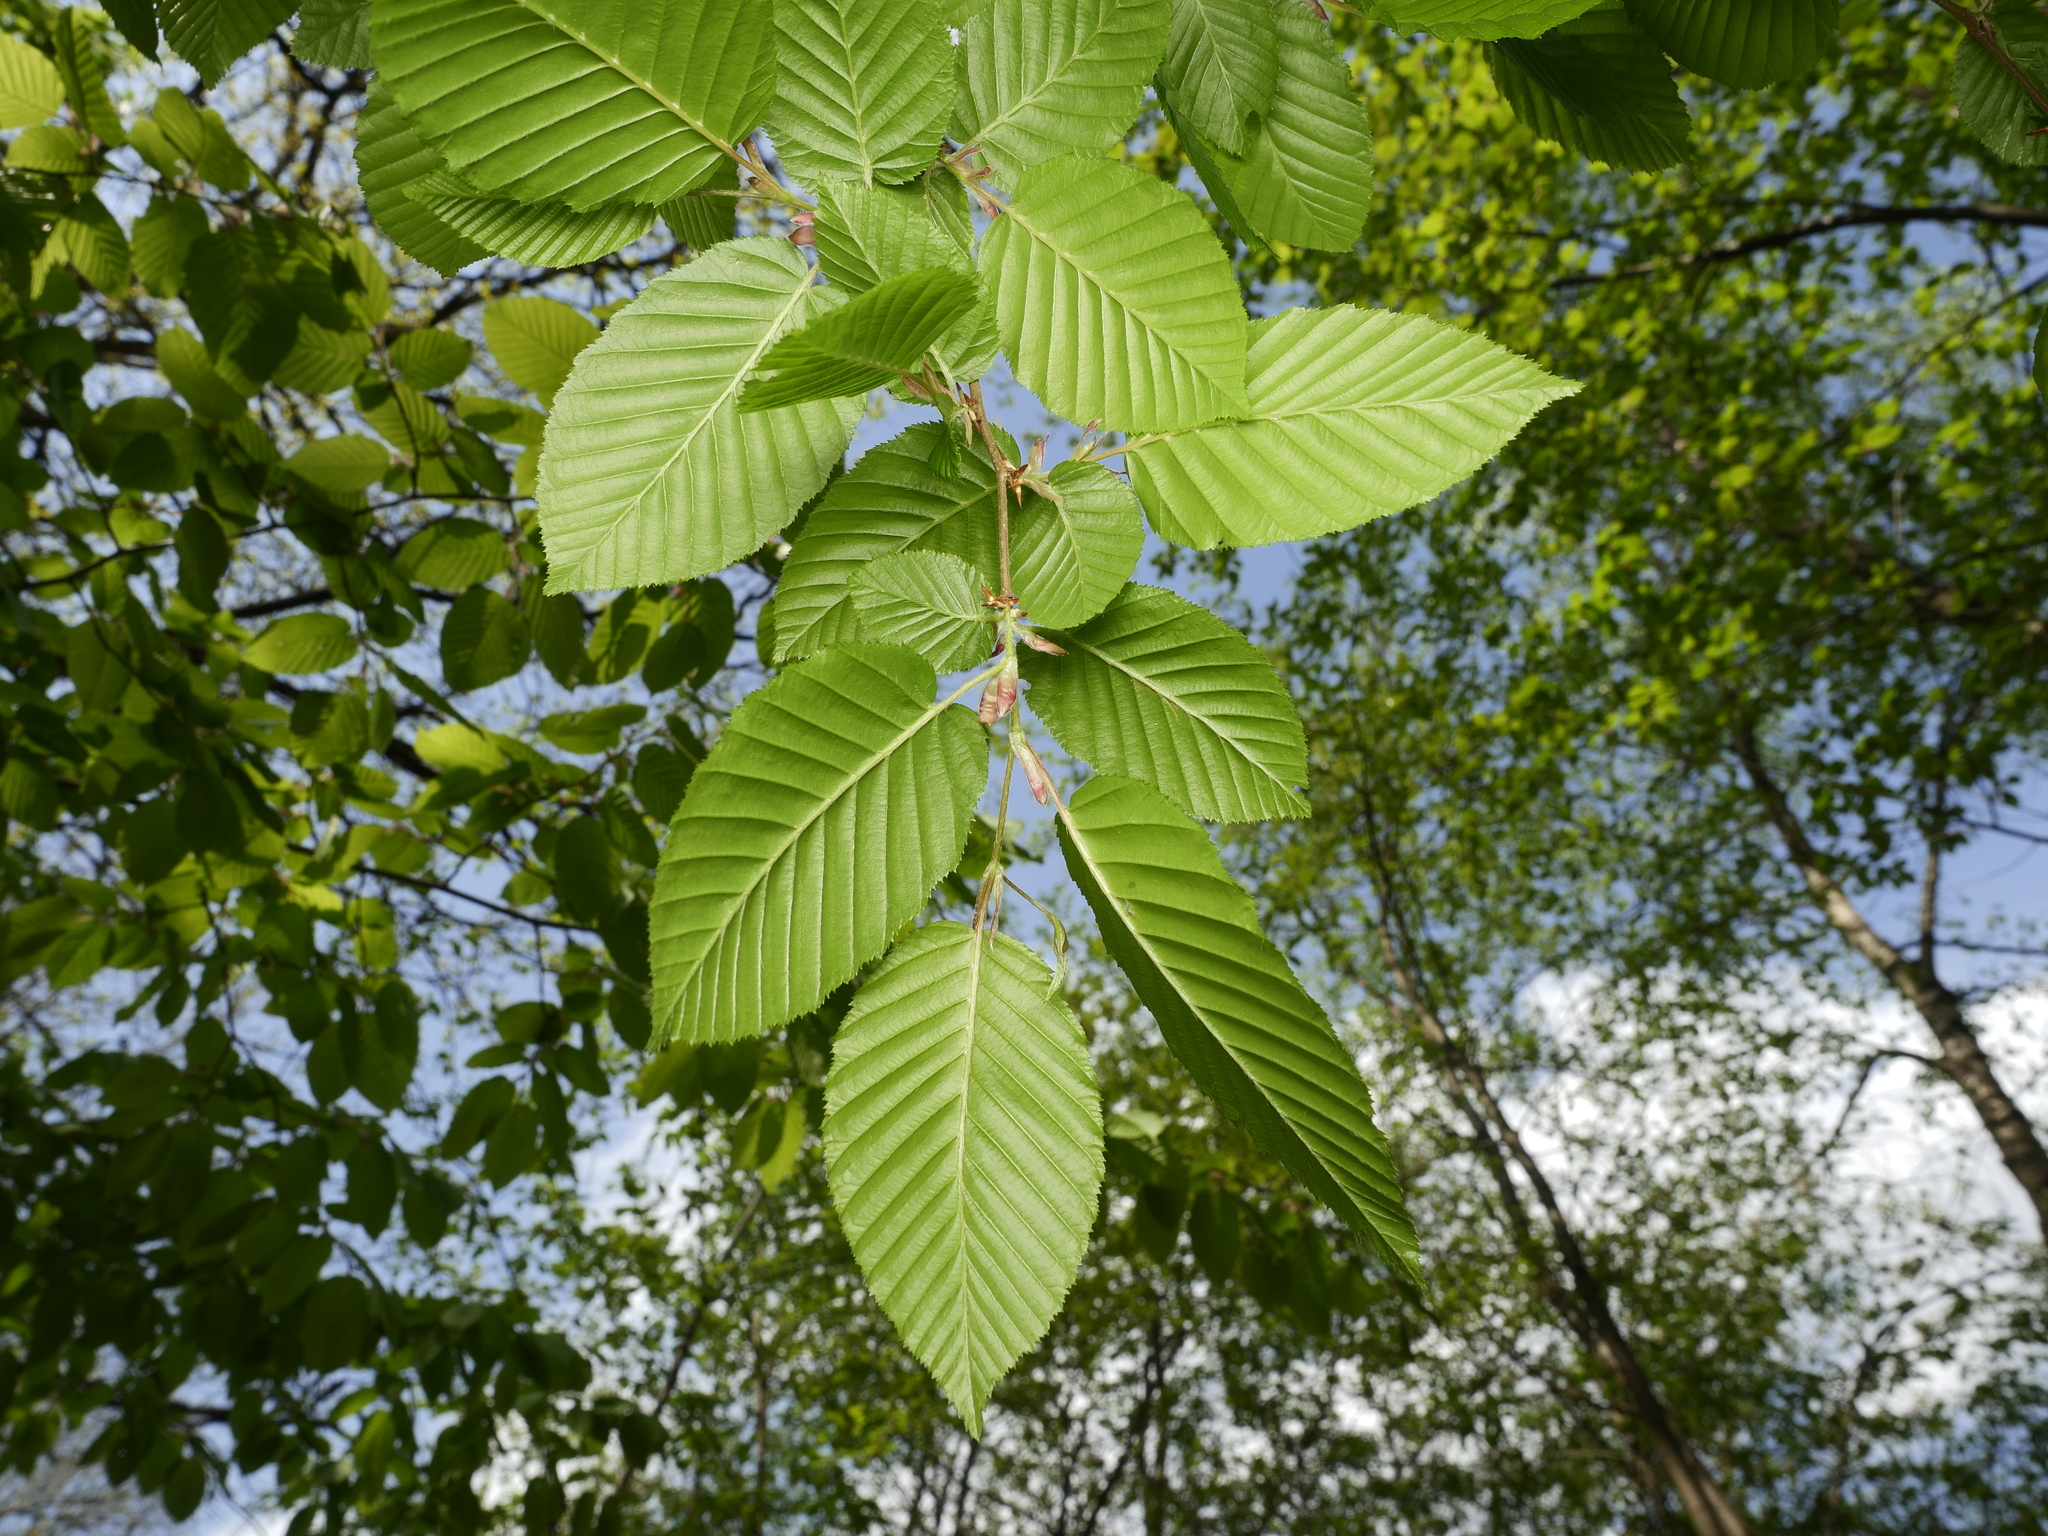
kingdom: Plantae
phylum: Tracheophyta
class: Magnoliopsida
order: Fagales
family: Betulaceae
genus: Carpinus
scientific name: Carpinus betulus
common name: Hornbeam
